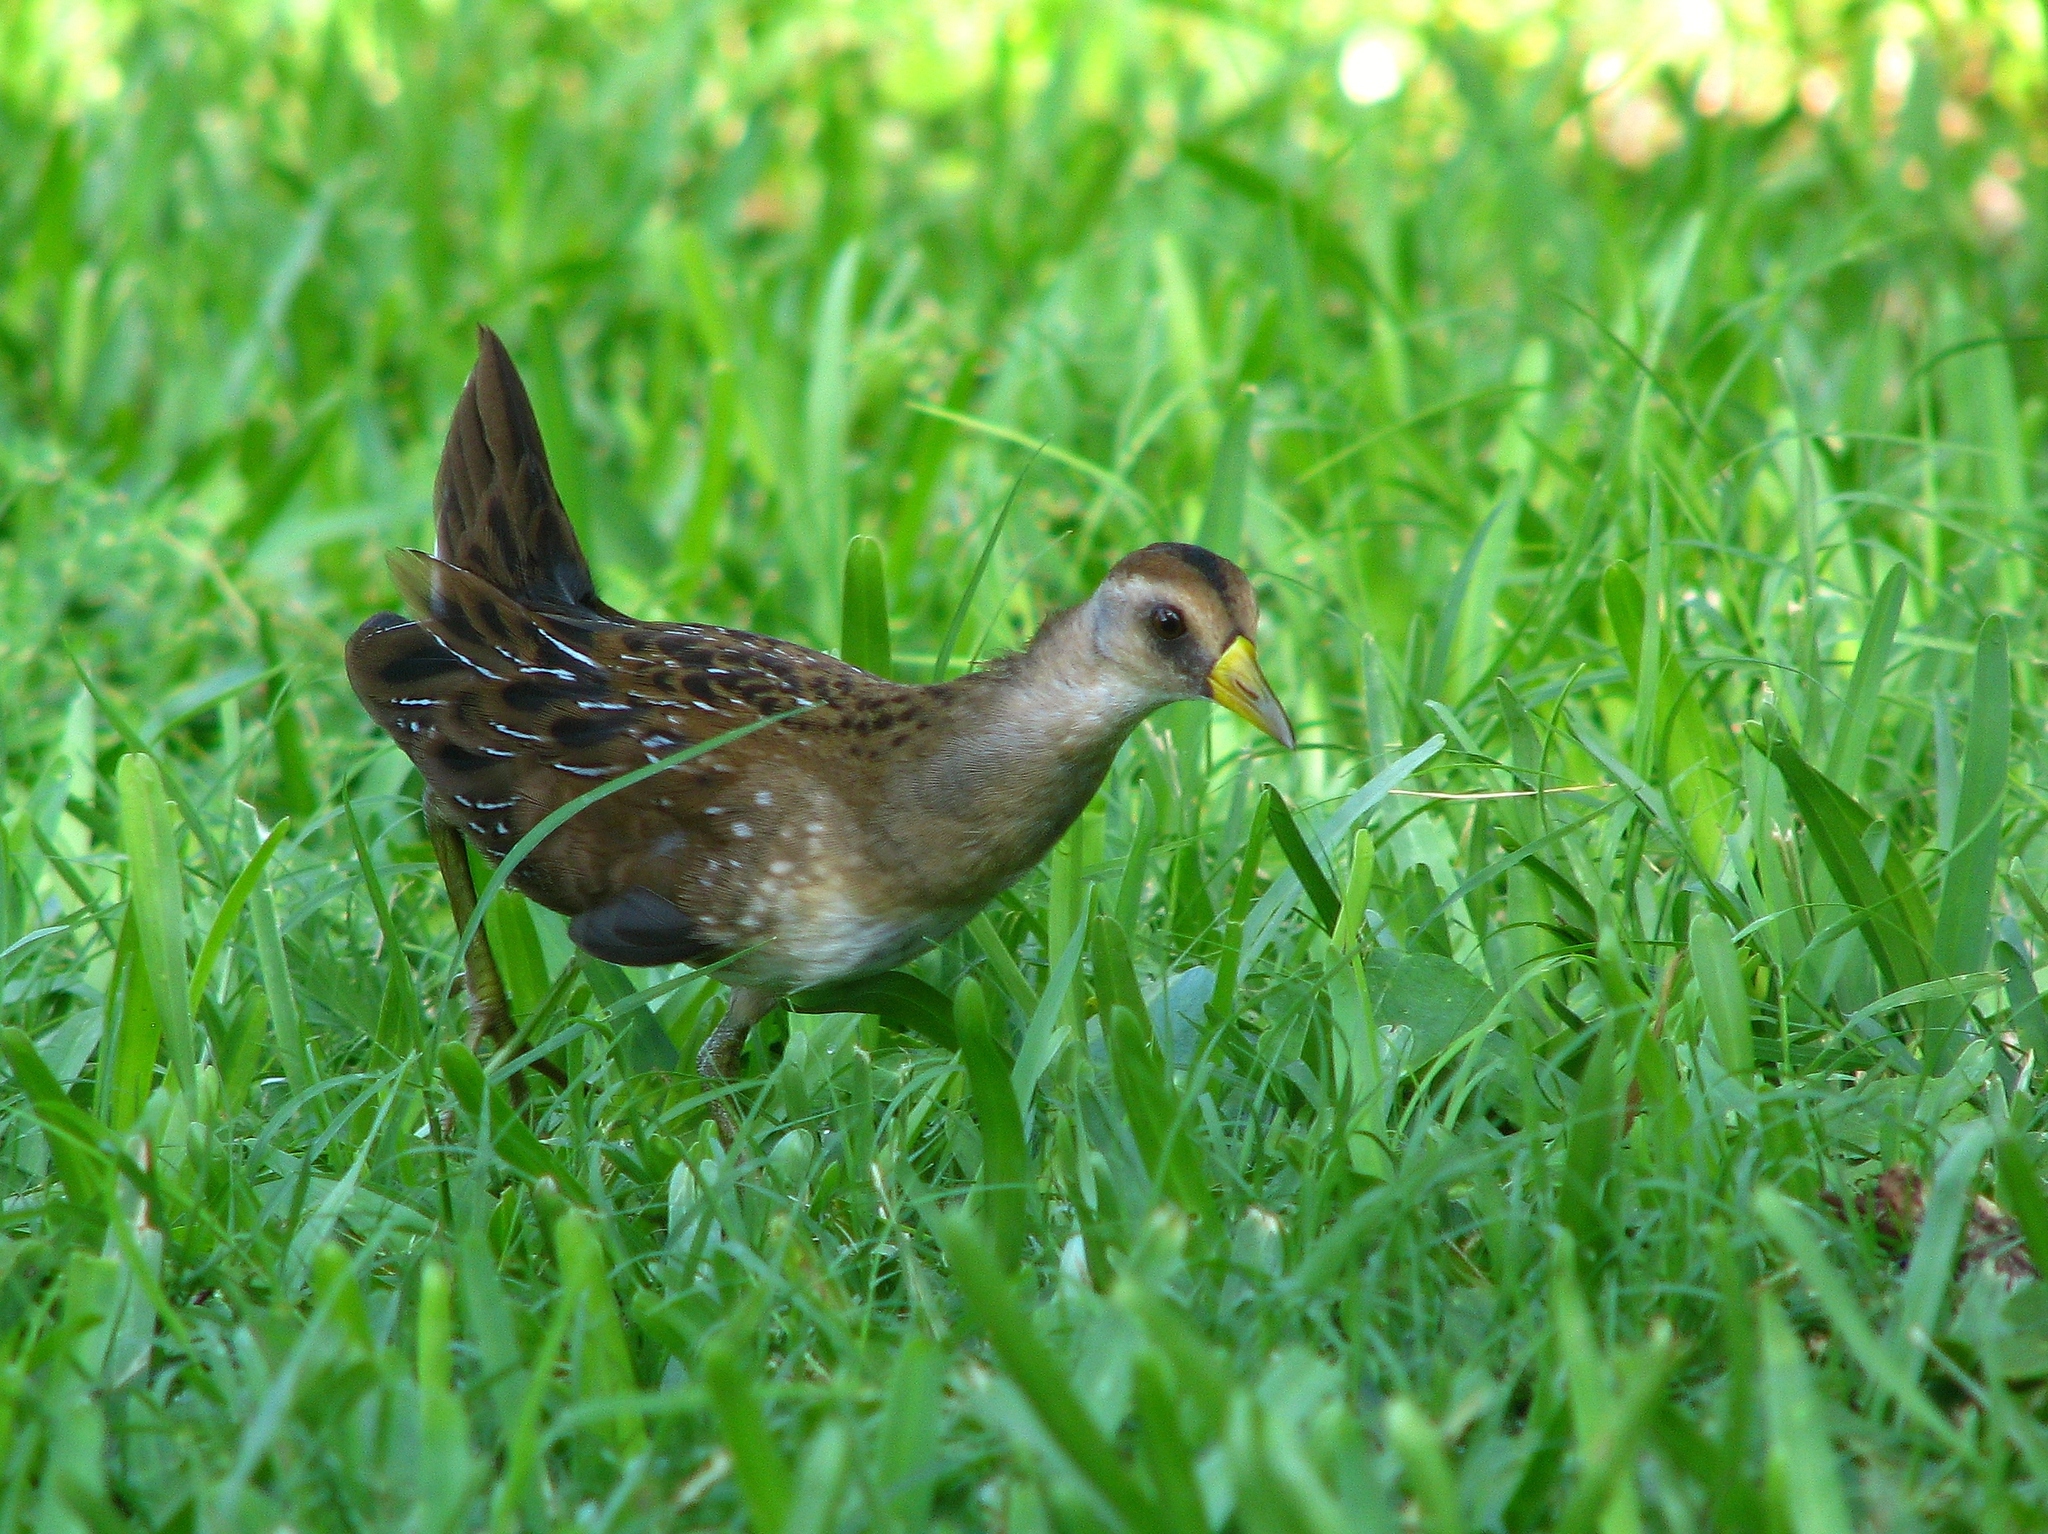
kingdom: Animalia
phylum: Chordata
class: Aves
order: Gruiformes
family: Rallidae
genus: Porzana
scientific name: Porzana carolina
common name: Sora
